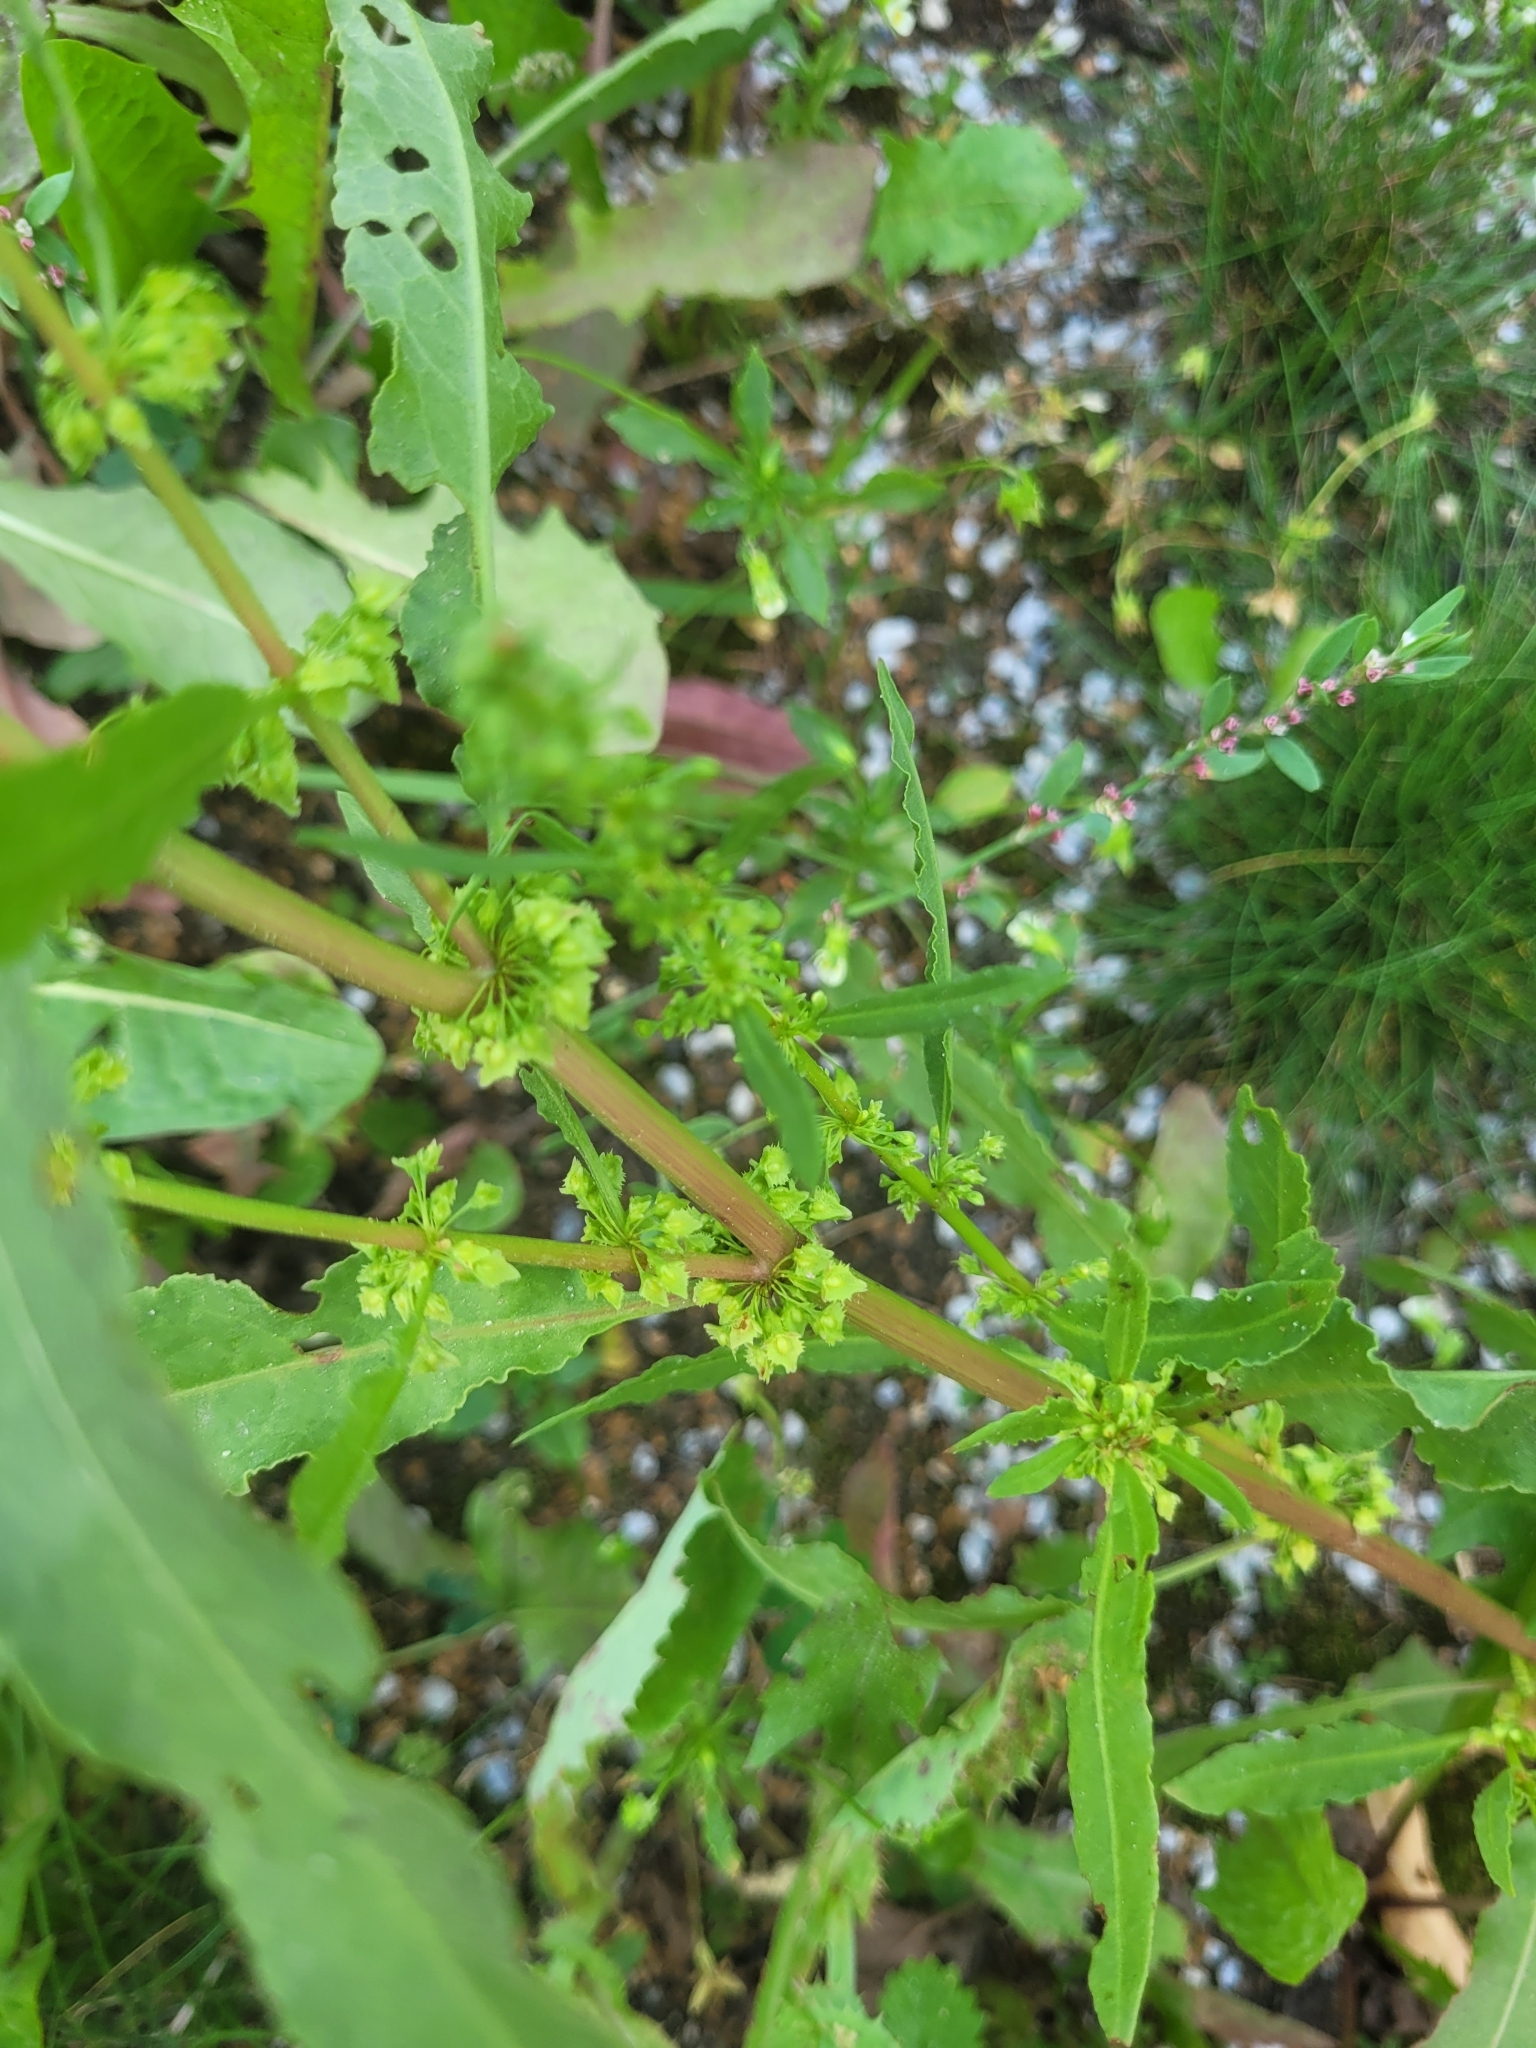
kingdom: Plantae
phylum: Tracheophyta
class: Magnoliopsida
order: Caryophyllales
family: Polygonaceae
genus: Rumex
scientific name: Rumex stenophyllus
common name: Narrowleaf dock
